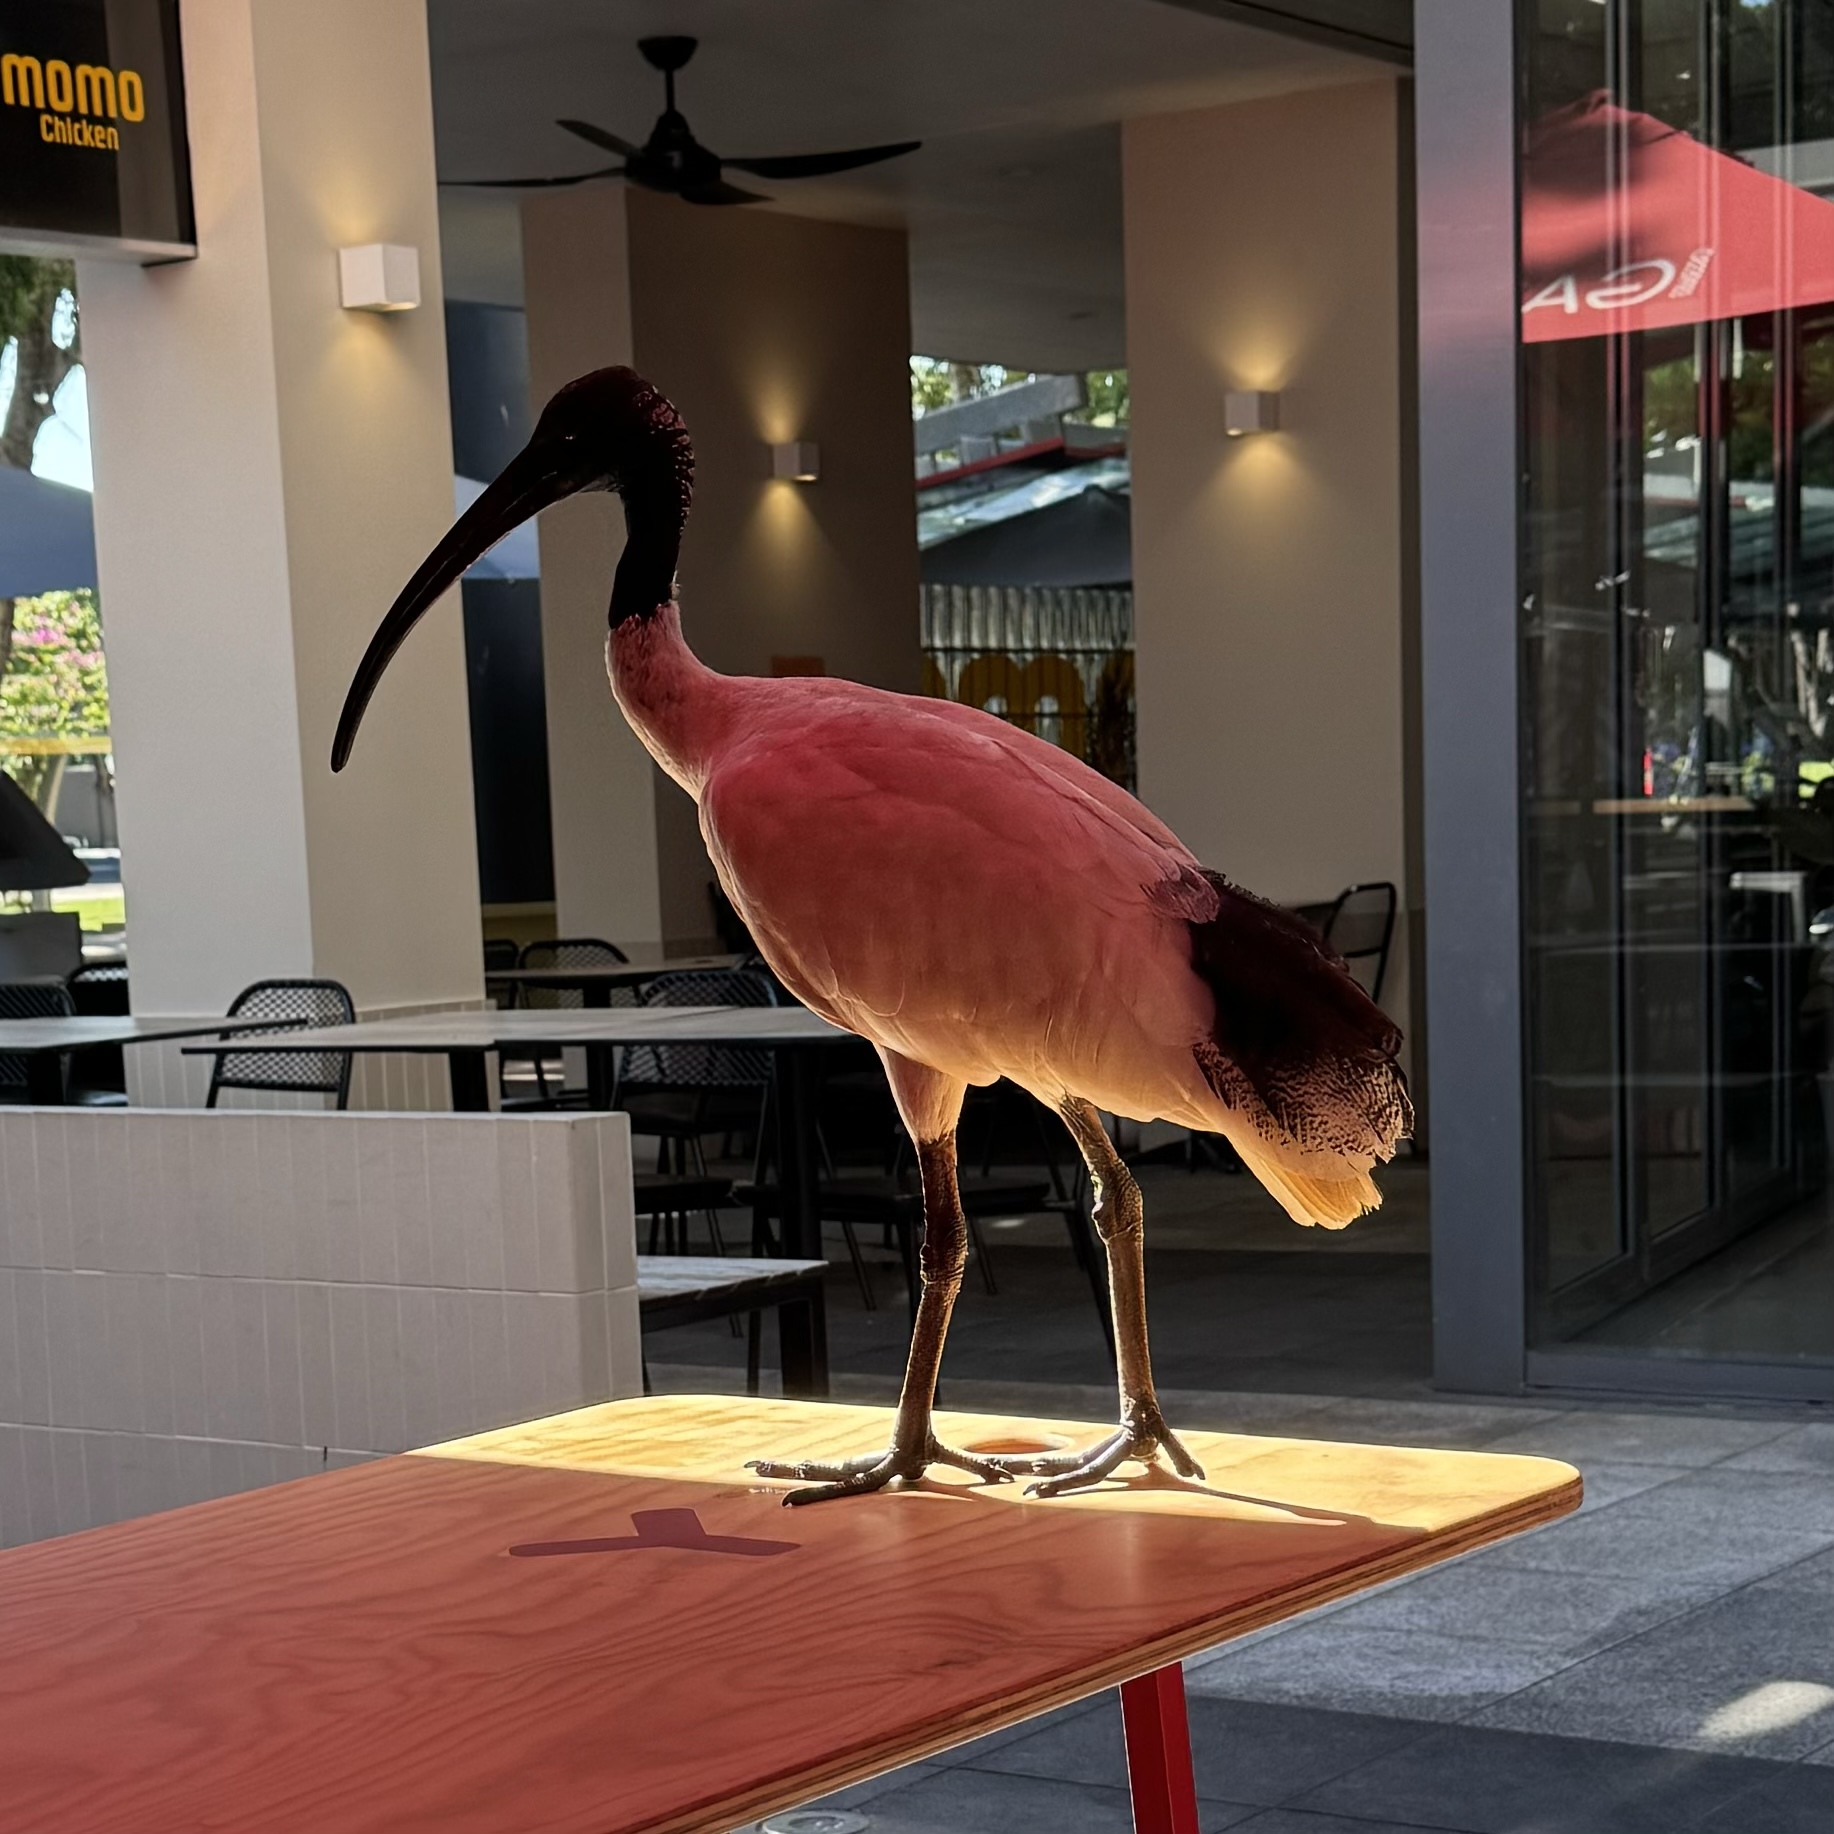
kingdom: Animalia
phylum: Chordata
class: Aves
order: Pelecaniformes
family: Threskiornithidae
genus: Threskiornis
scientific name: Threskiornis molucca
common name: Australian white ibis
